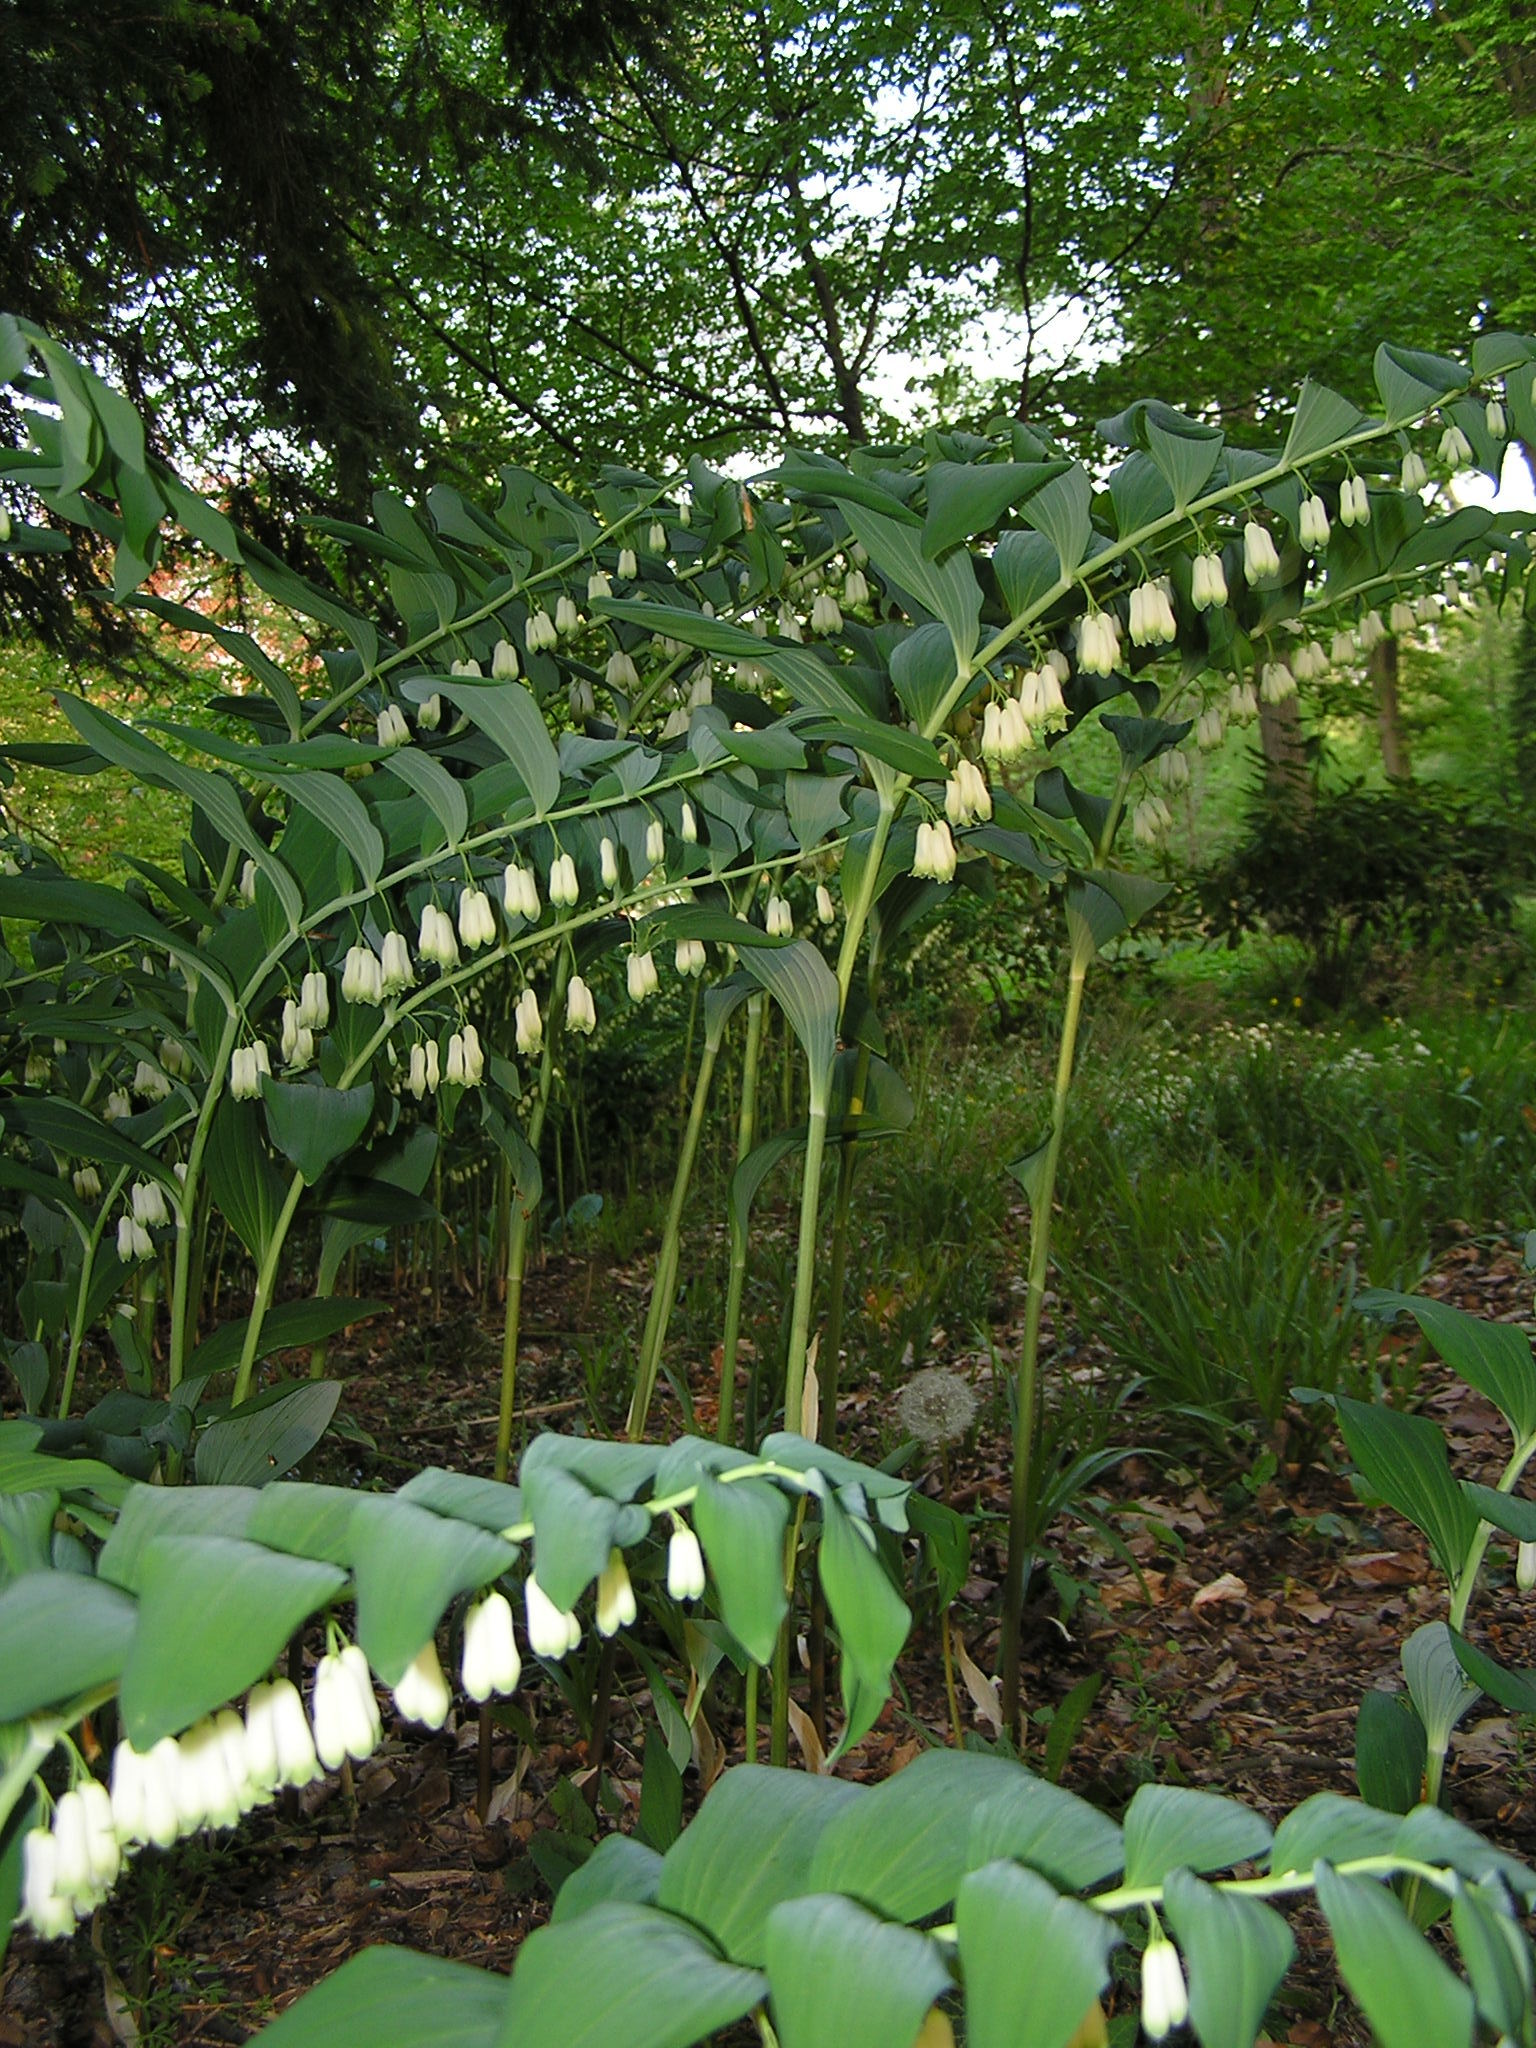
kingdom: Plantae
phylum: Tracheophyta
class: Liliopsida
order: Asparagales
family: Asparagaceae
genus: Polygonatum
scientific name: Polygonatum multiflorum
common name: Solomon's-seal
